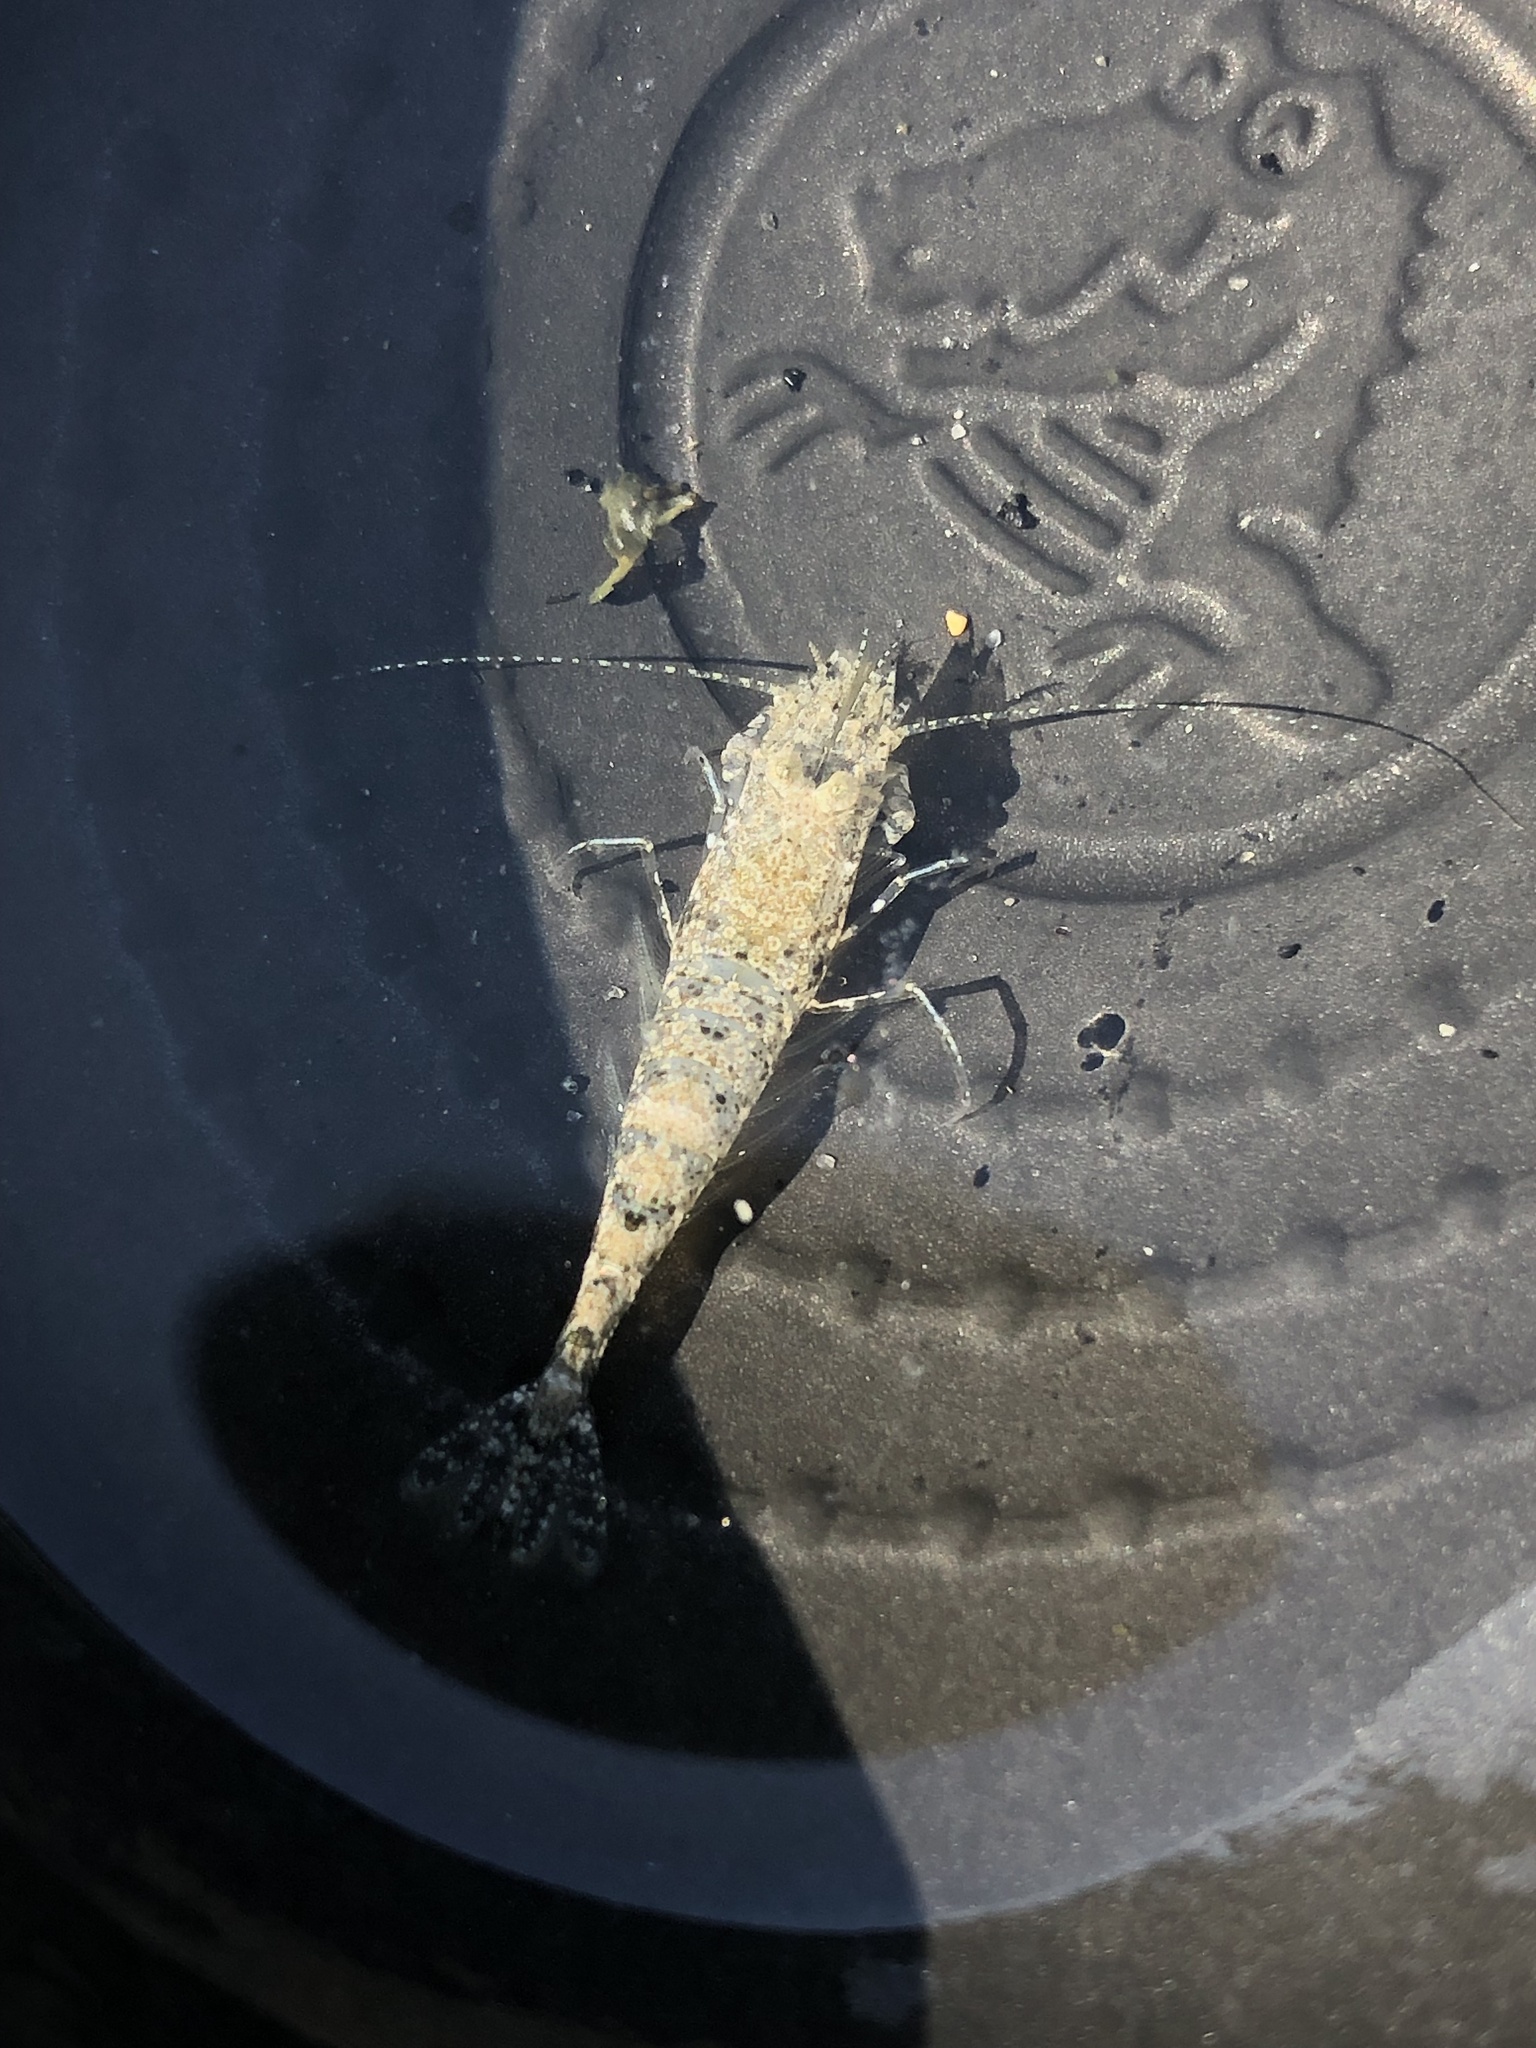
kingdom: Animalia
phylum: Arthropoda
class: Malacostraca
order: Decapoda
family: Crangonidae
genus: Crangon
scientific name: Crangon septemspinosa
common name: Bail shrimp
